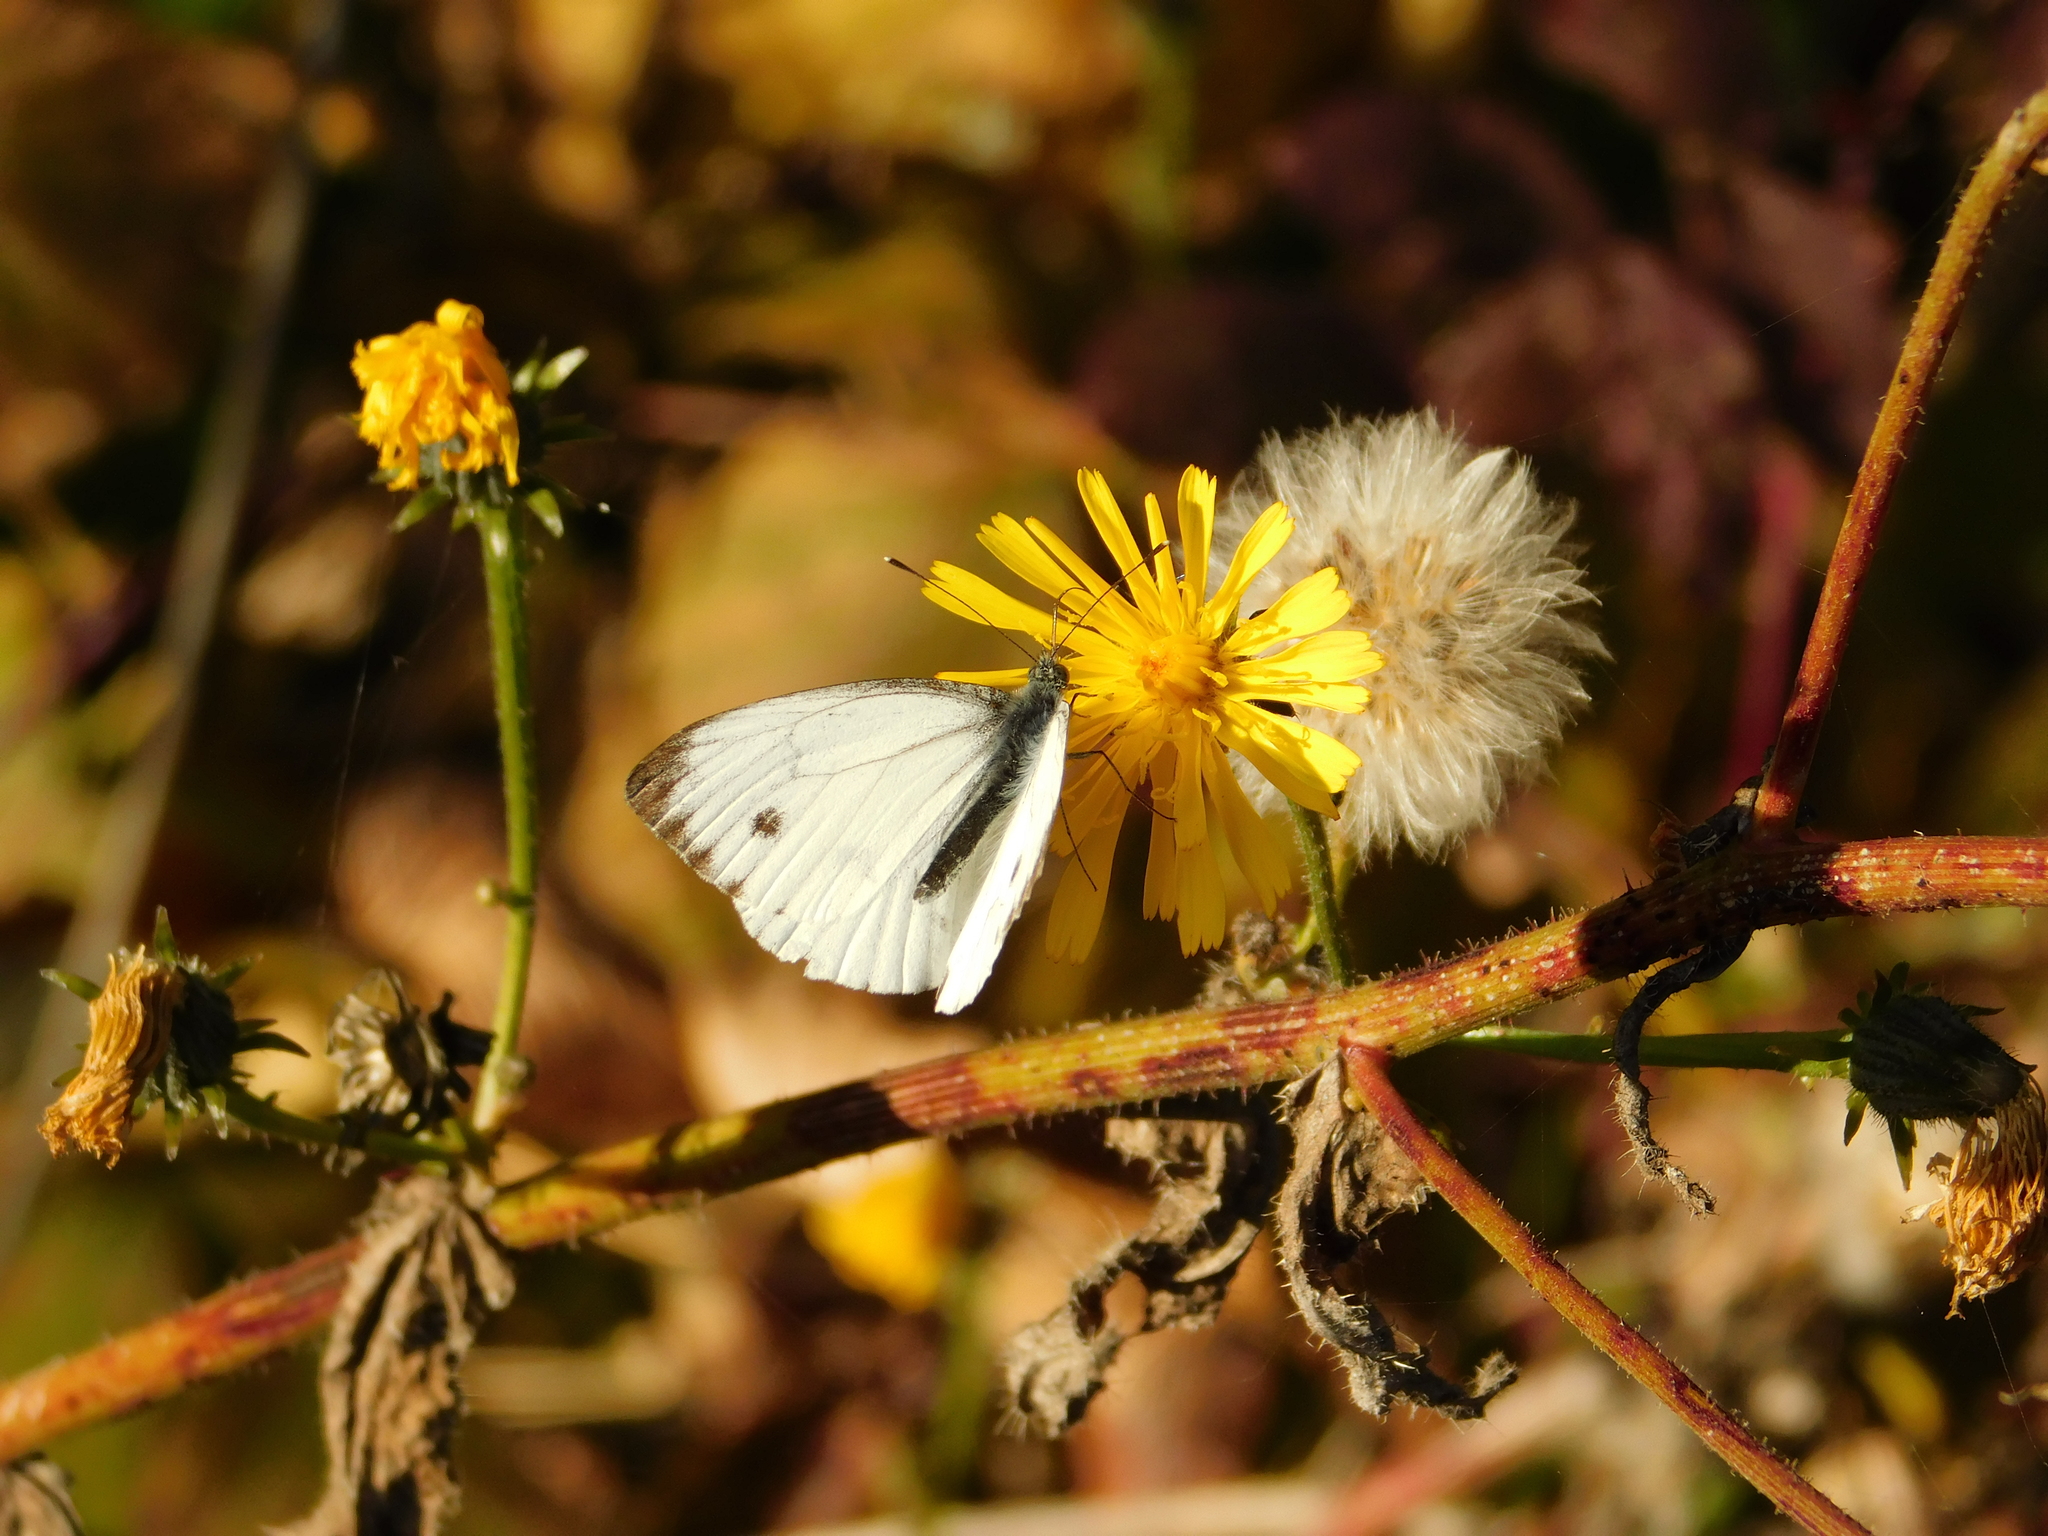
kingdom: Animalia
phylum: Arthropoda
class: Insecta
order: Lepidoptera
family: Pieridae
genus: Pieris
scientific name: Pieris napi
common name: Green-veined white
